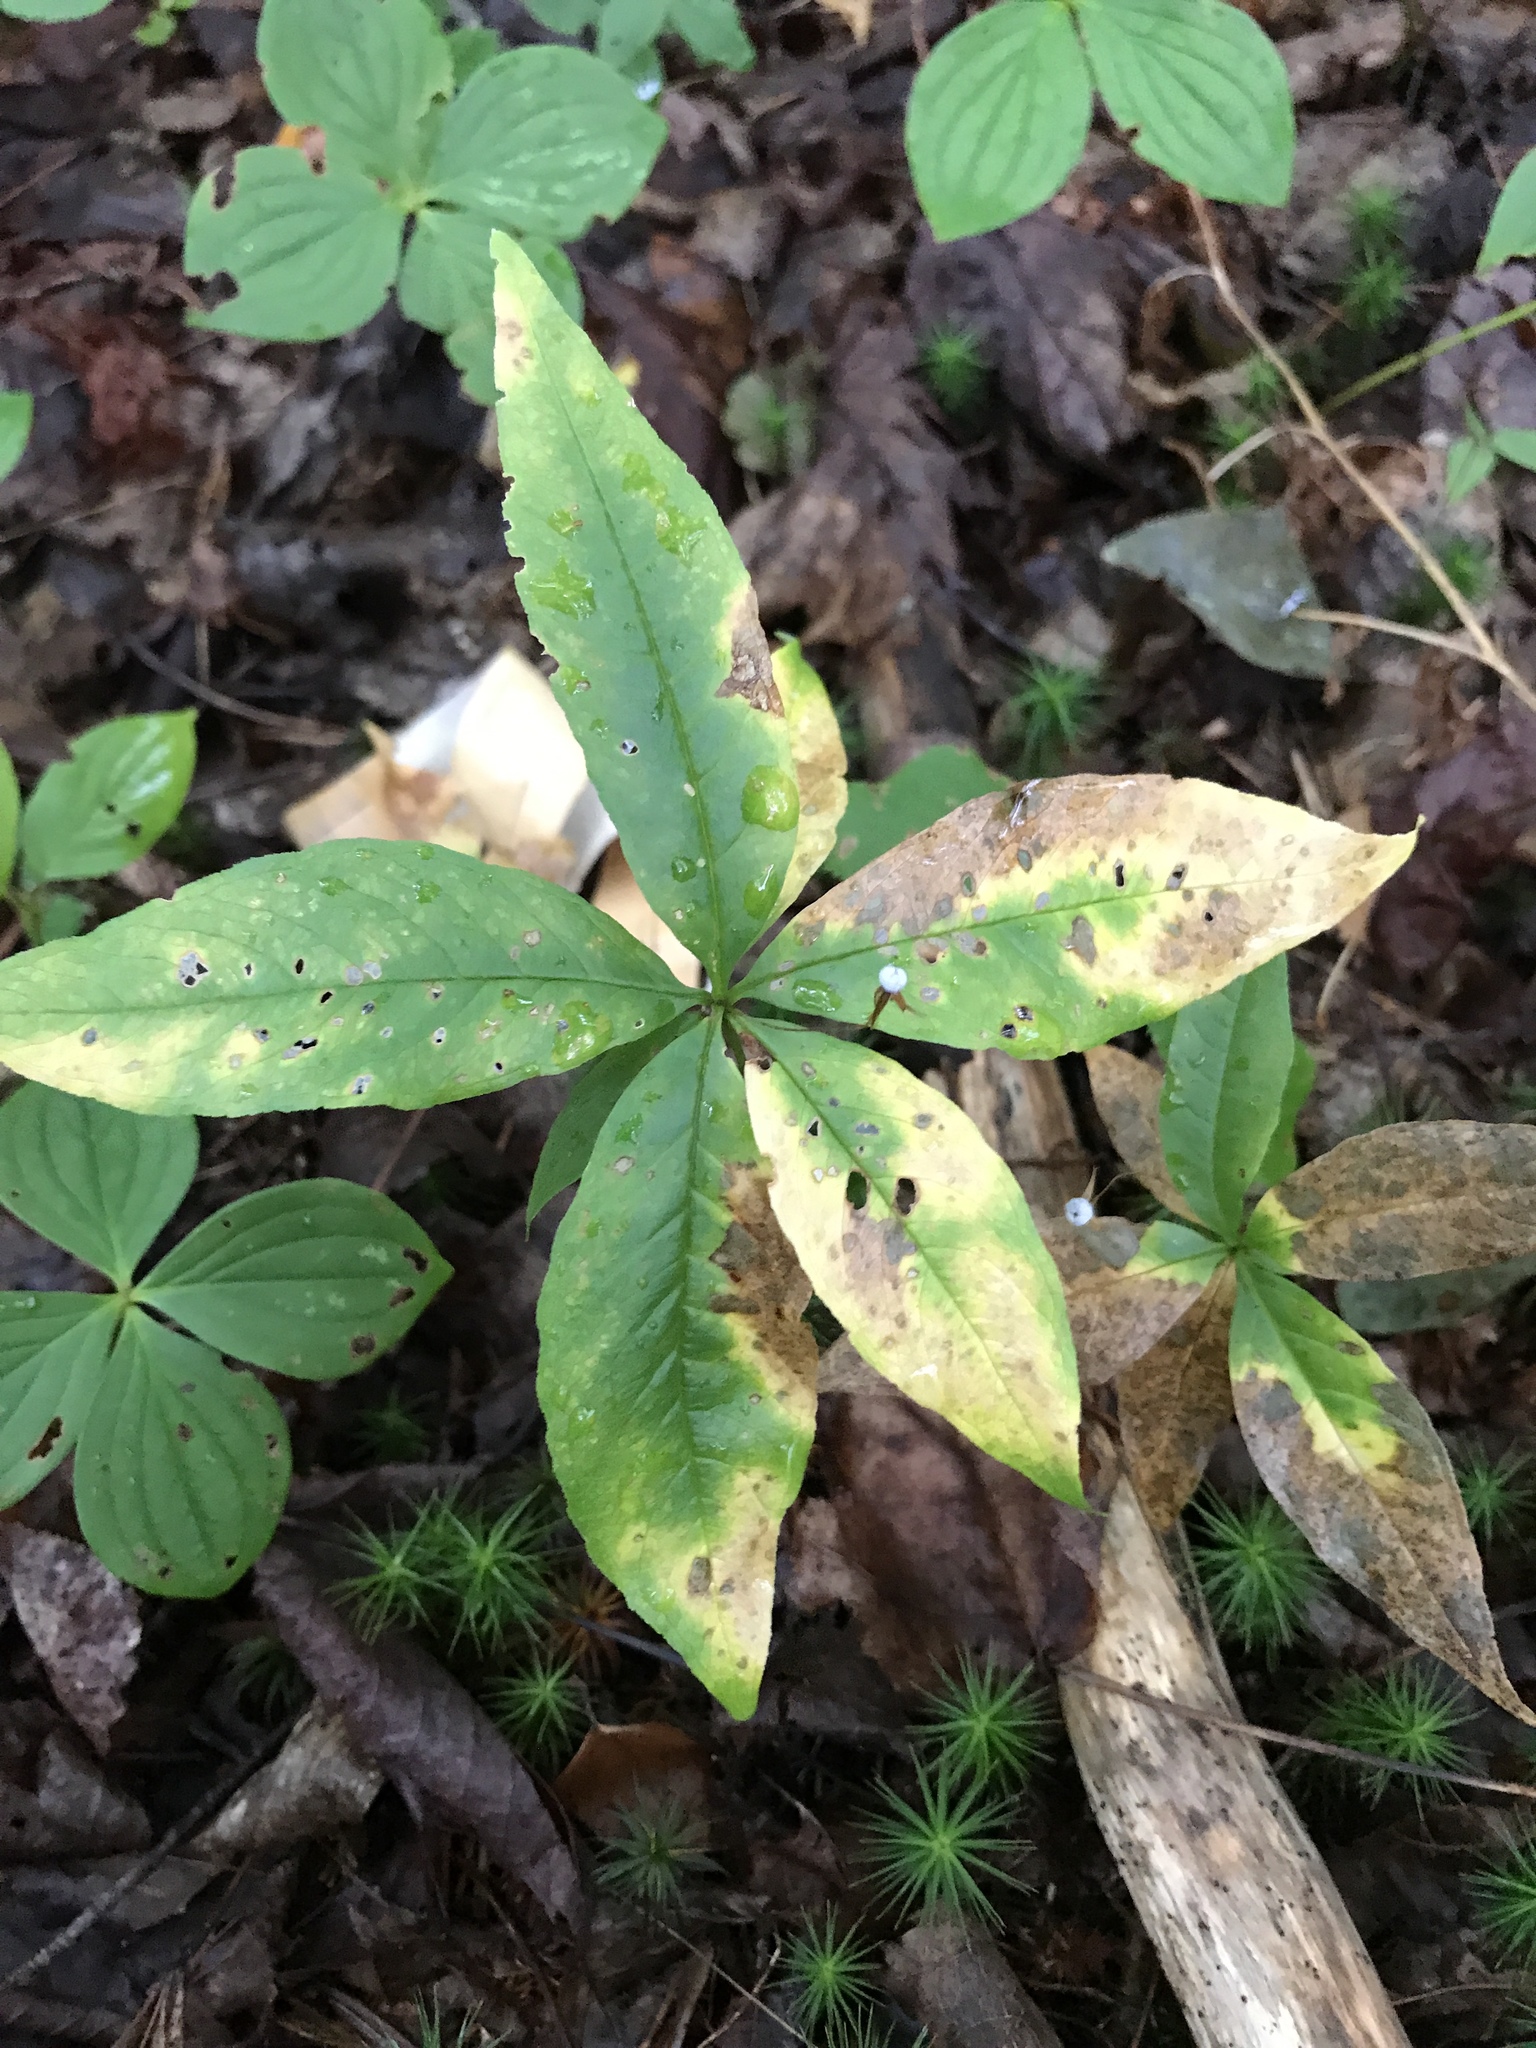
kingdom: Plantae
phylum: Tracheophyta
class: Magnoliopsida
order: Ericales
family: Primulaceae
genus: Lysimachia
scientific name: Lysimachia borealis
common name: American starflower
